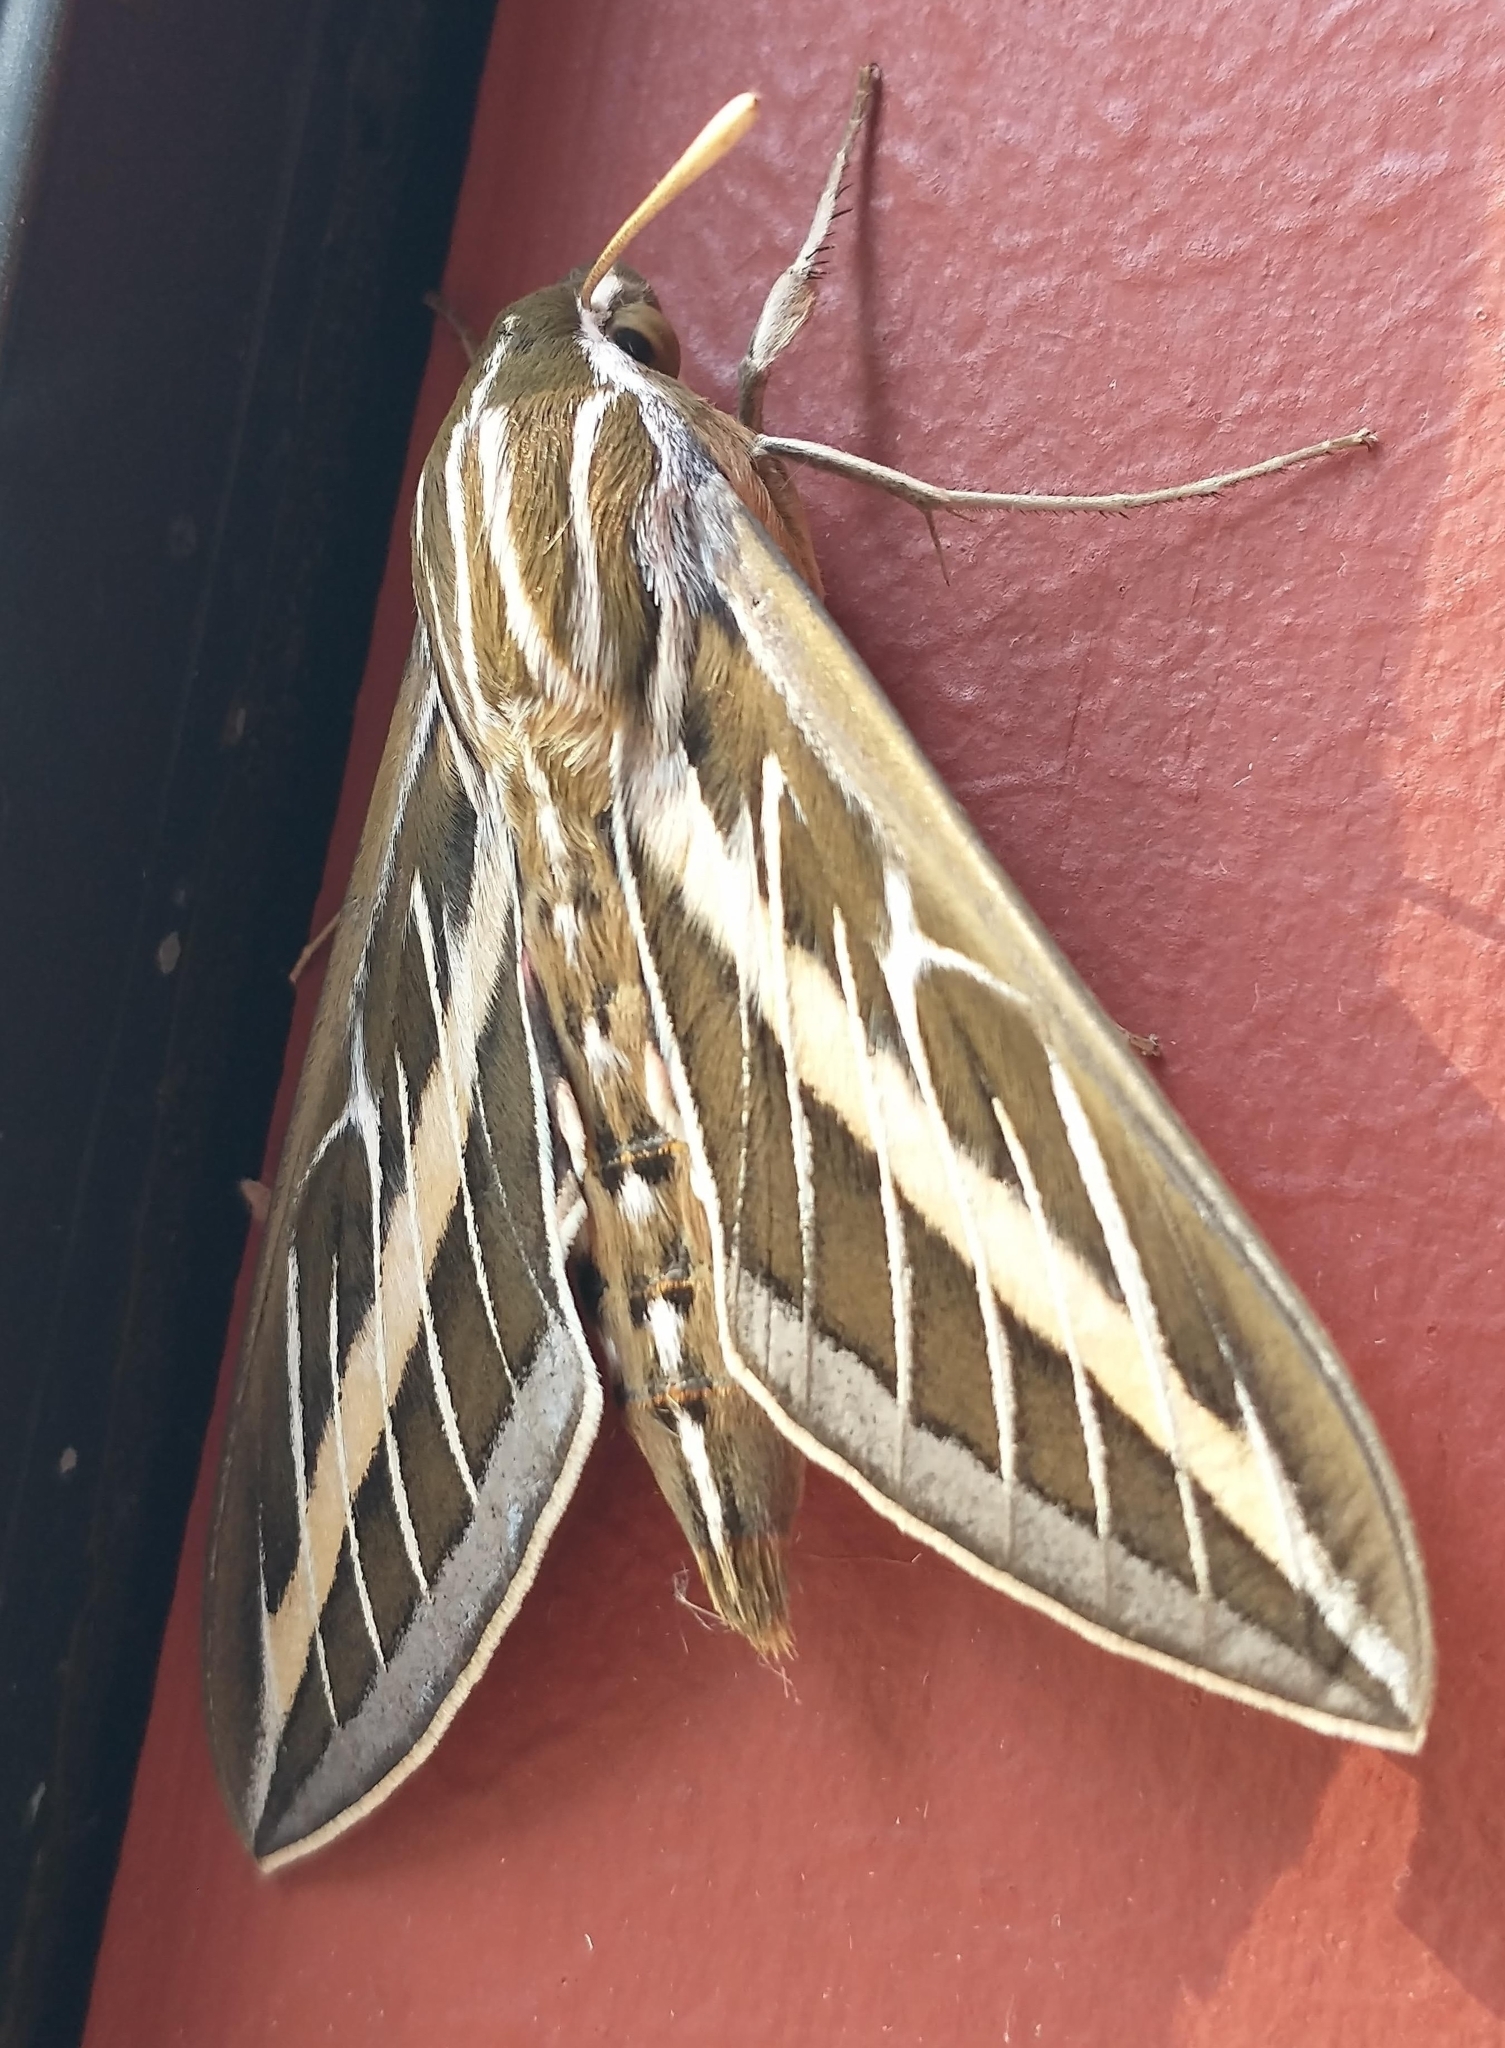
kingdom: Animalia
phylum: Arthropoda
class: Insecta
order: Lepidoptera
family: Sphingidae
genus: Hyles
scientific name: Hyles lineata
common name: White-lined sphinx
